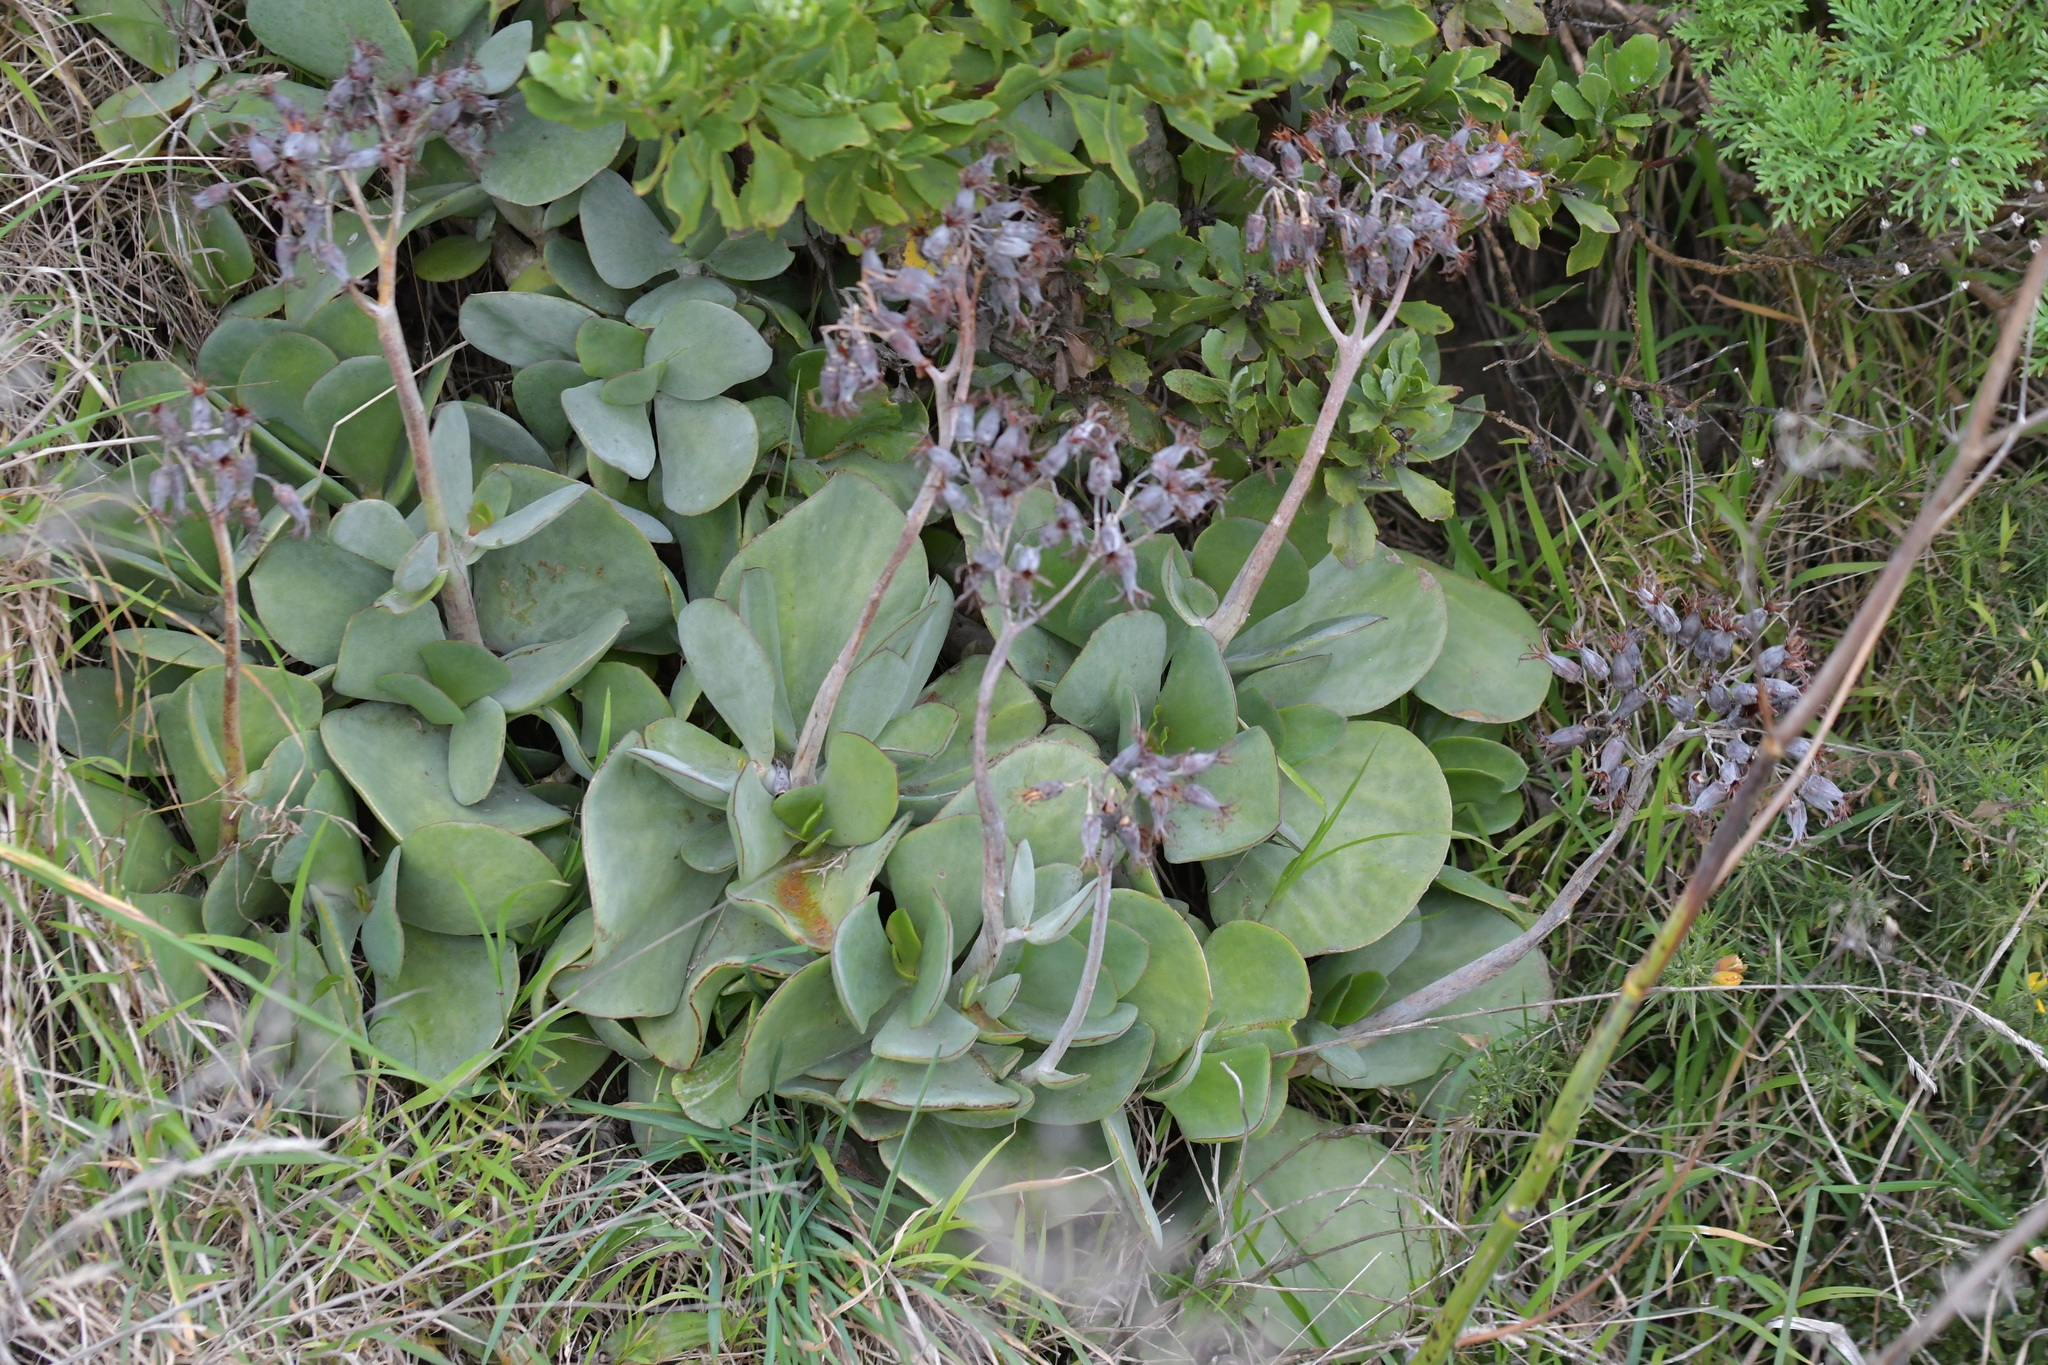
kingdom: Plantae
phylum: Tracheophyta
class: Magnoliopsida
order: Saxifragales
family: Crassulaceae
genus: Cotyledon
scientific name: Cotyledon orbiculata
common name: Pig's ear
